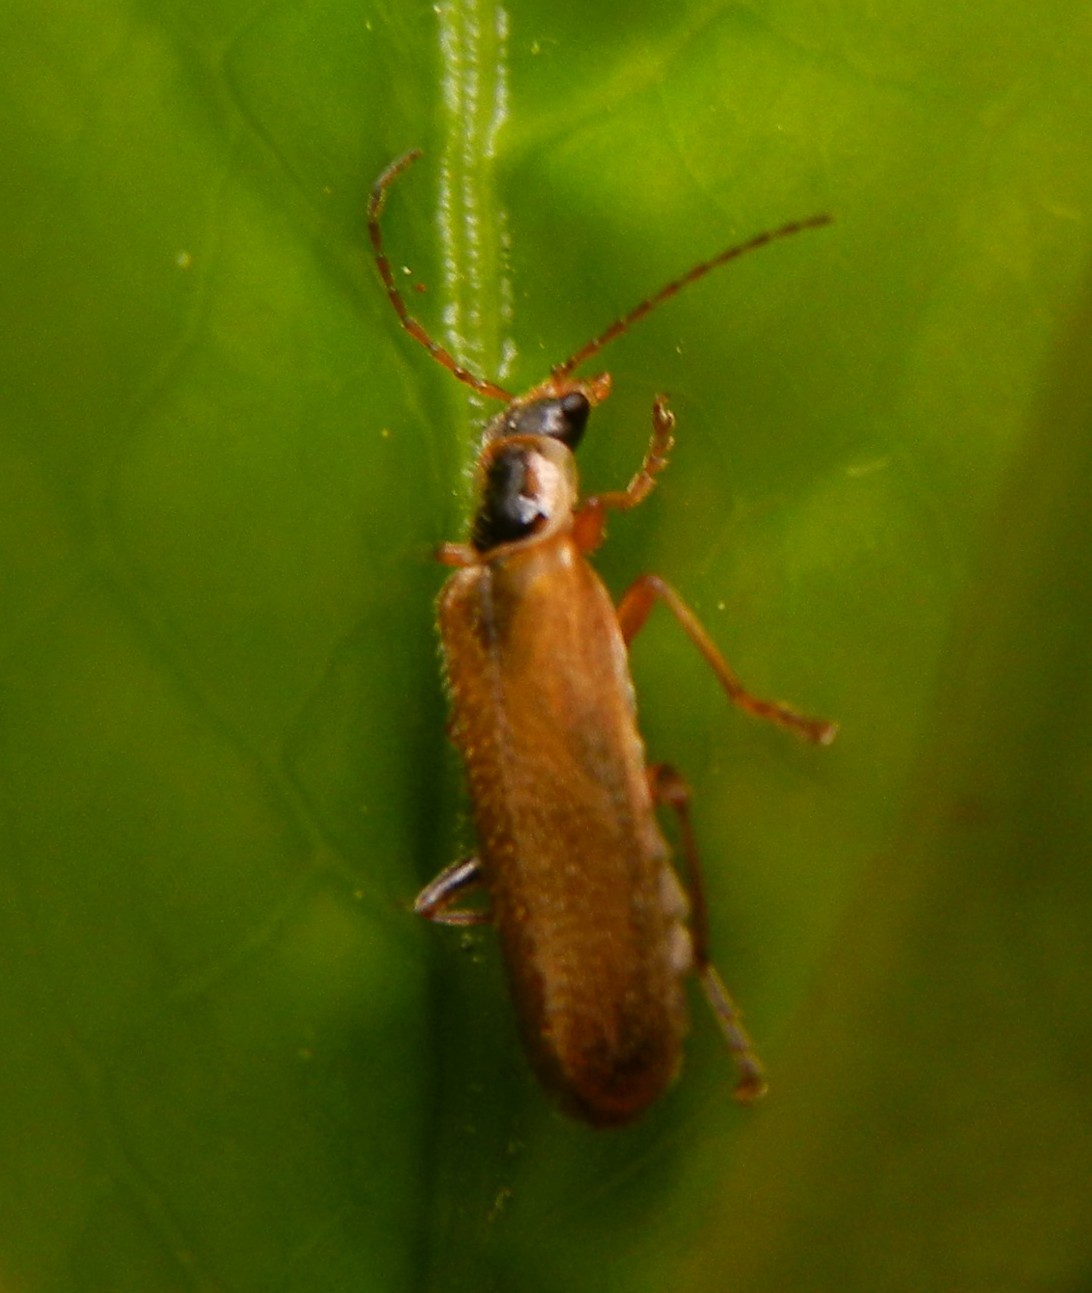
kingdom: Animalia
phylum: Arthropoda
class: Insecta
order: Coleoptera
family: Cantharidae
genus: Cantharis
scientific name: Cantharis decipiens
